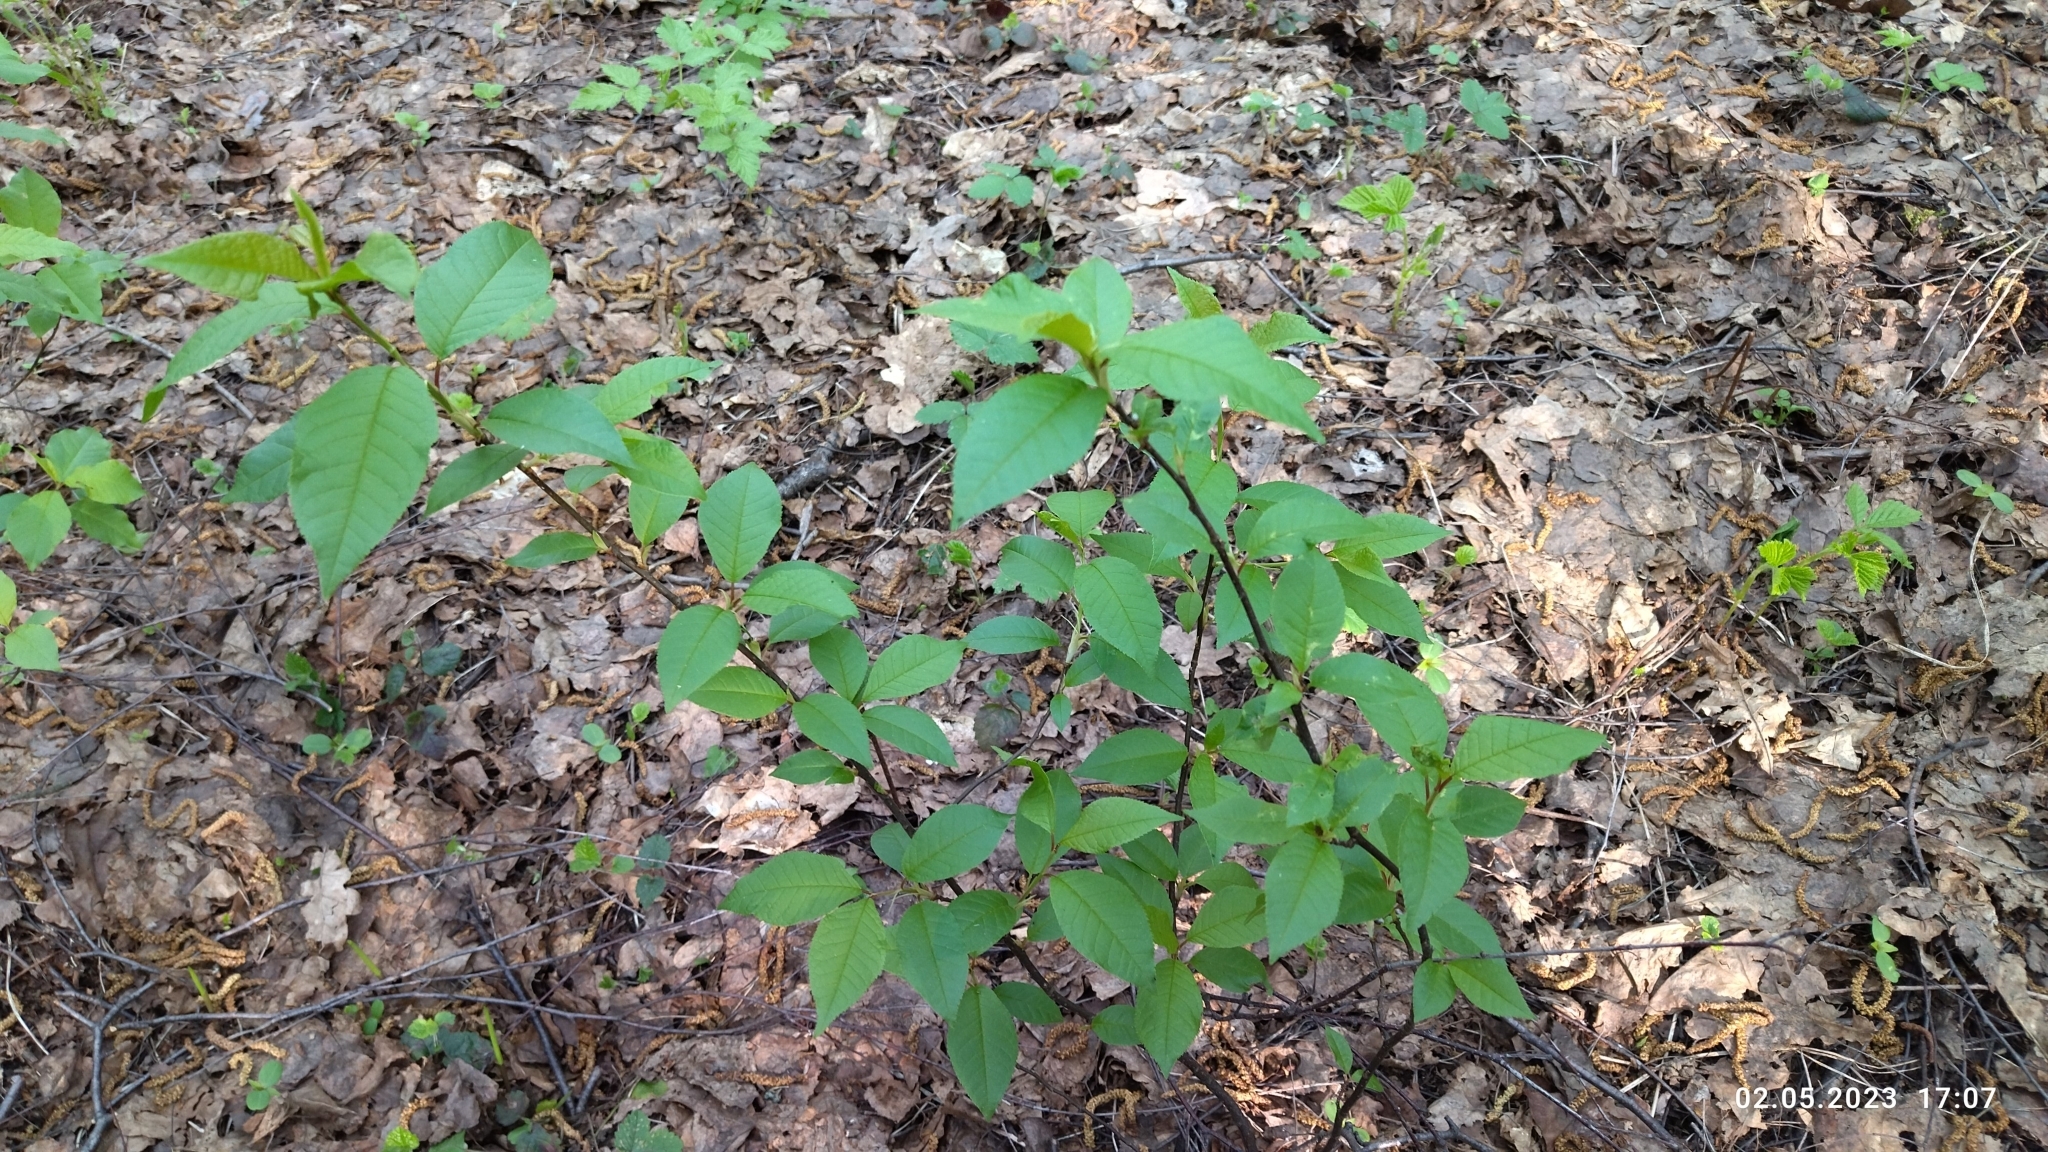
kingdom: Plantae
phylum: Tracheophyta
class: Magnoliopsida
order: Rosales
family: Rosaceae
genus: Prunus
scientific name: Prunus padus
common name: Bird cherry
